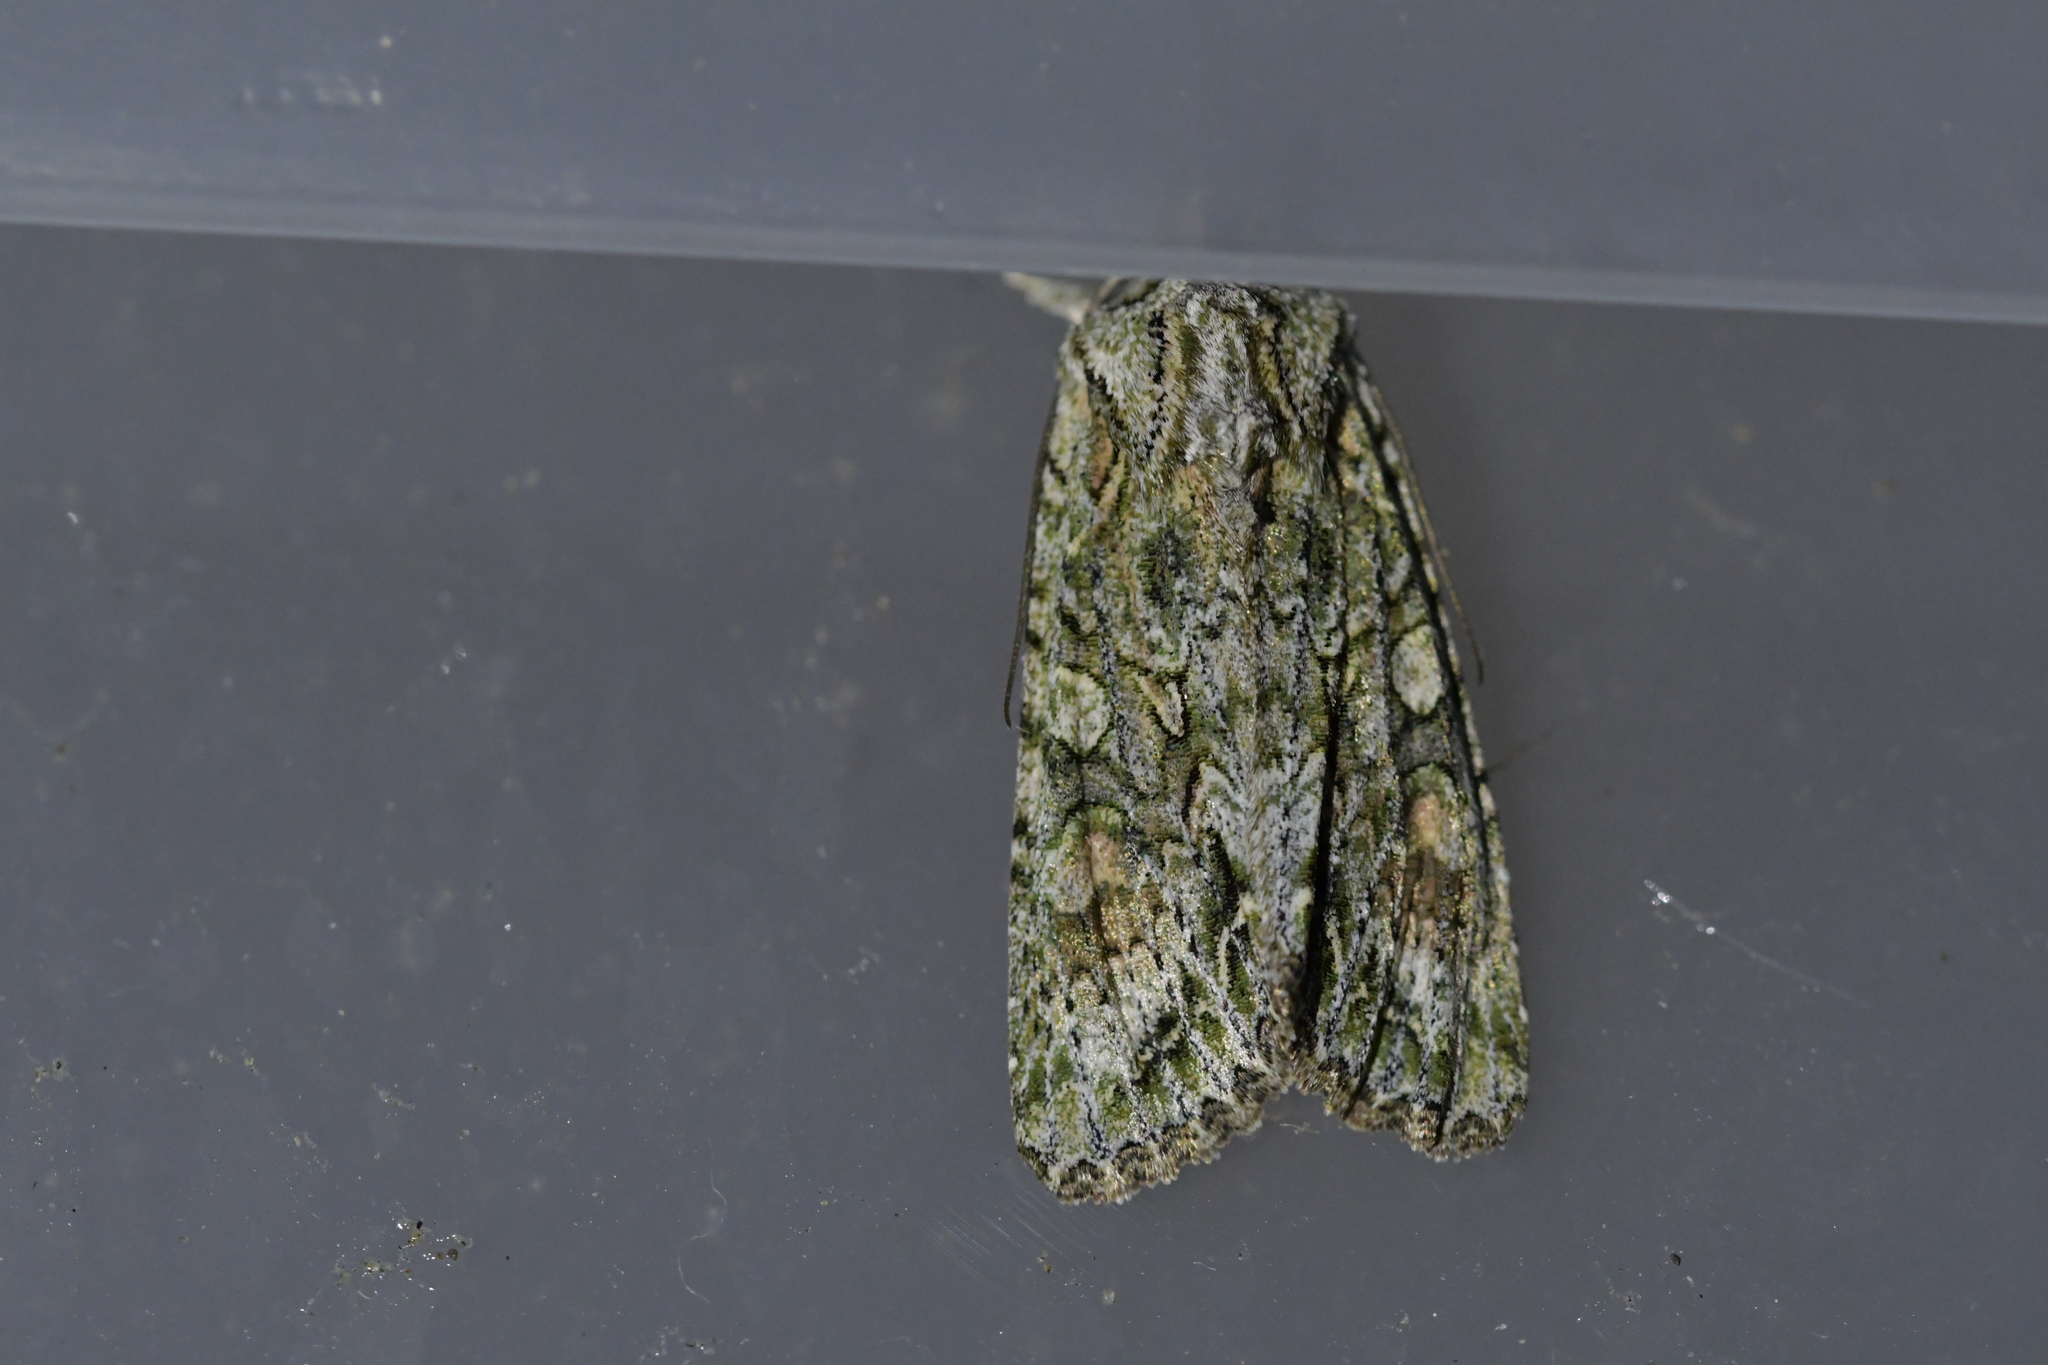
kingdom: Animalia
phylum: Arthropoda
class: Insecta
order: Lepidoptera
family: Noctuidae
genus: Ichneutica
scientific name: Ichneutica mutans
